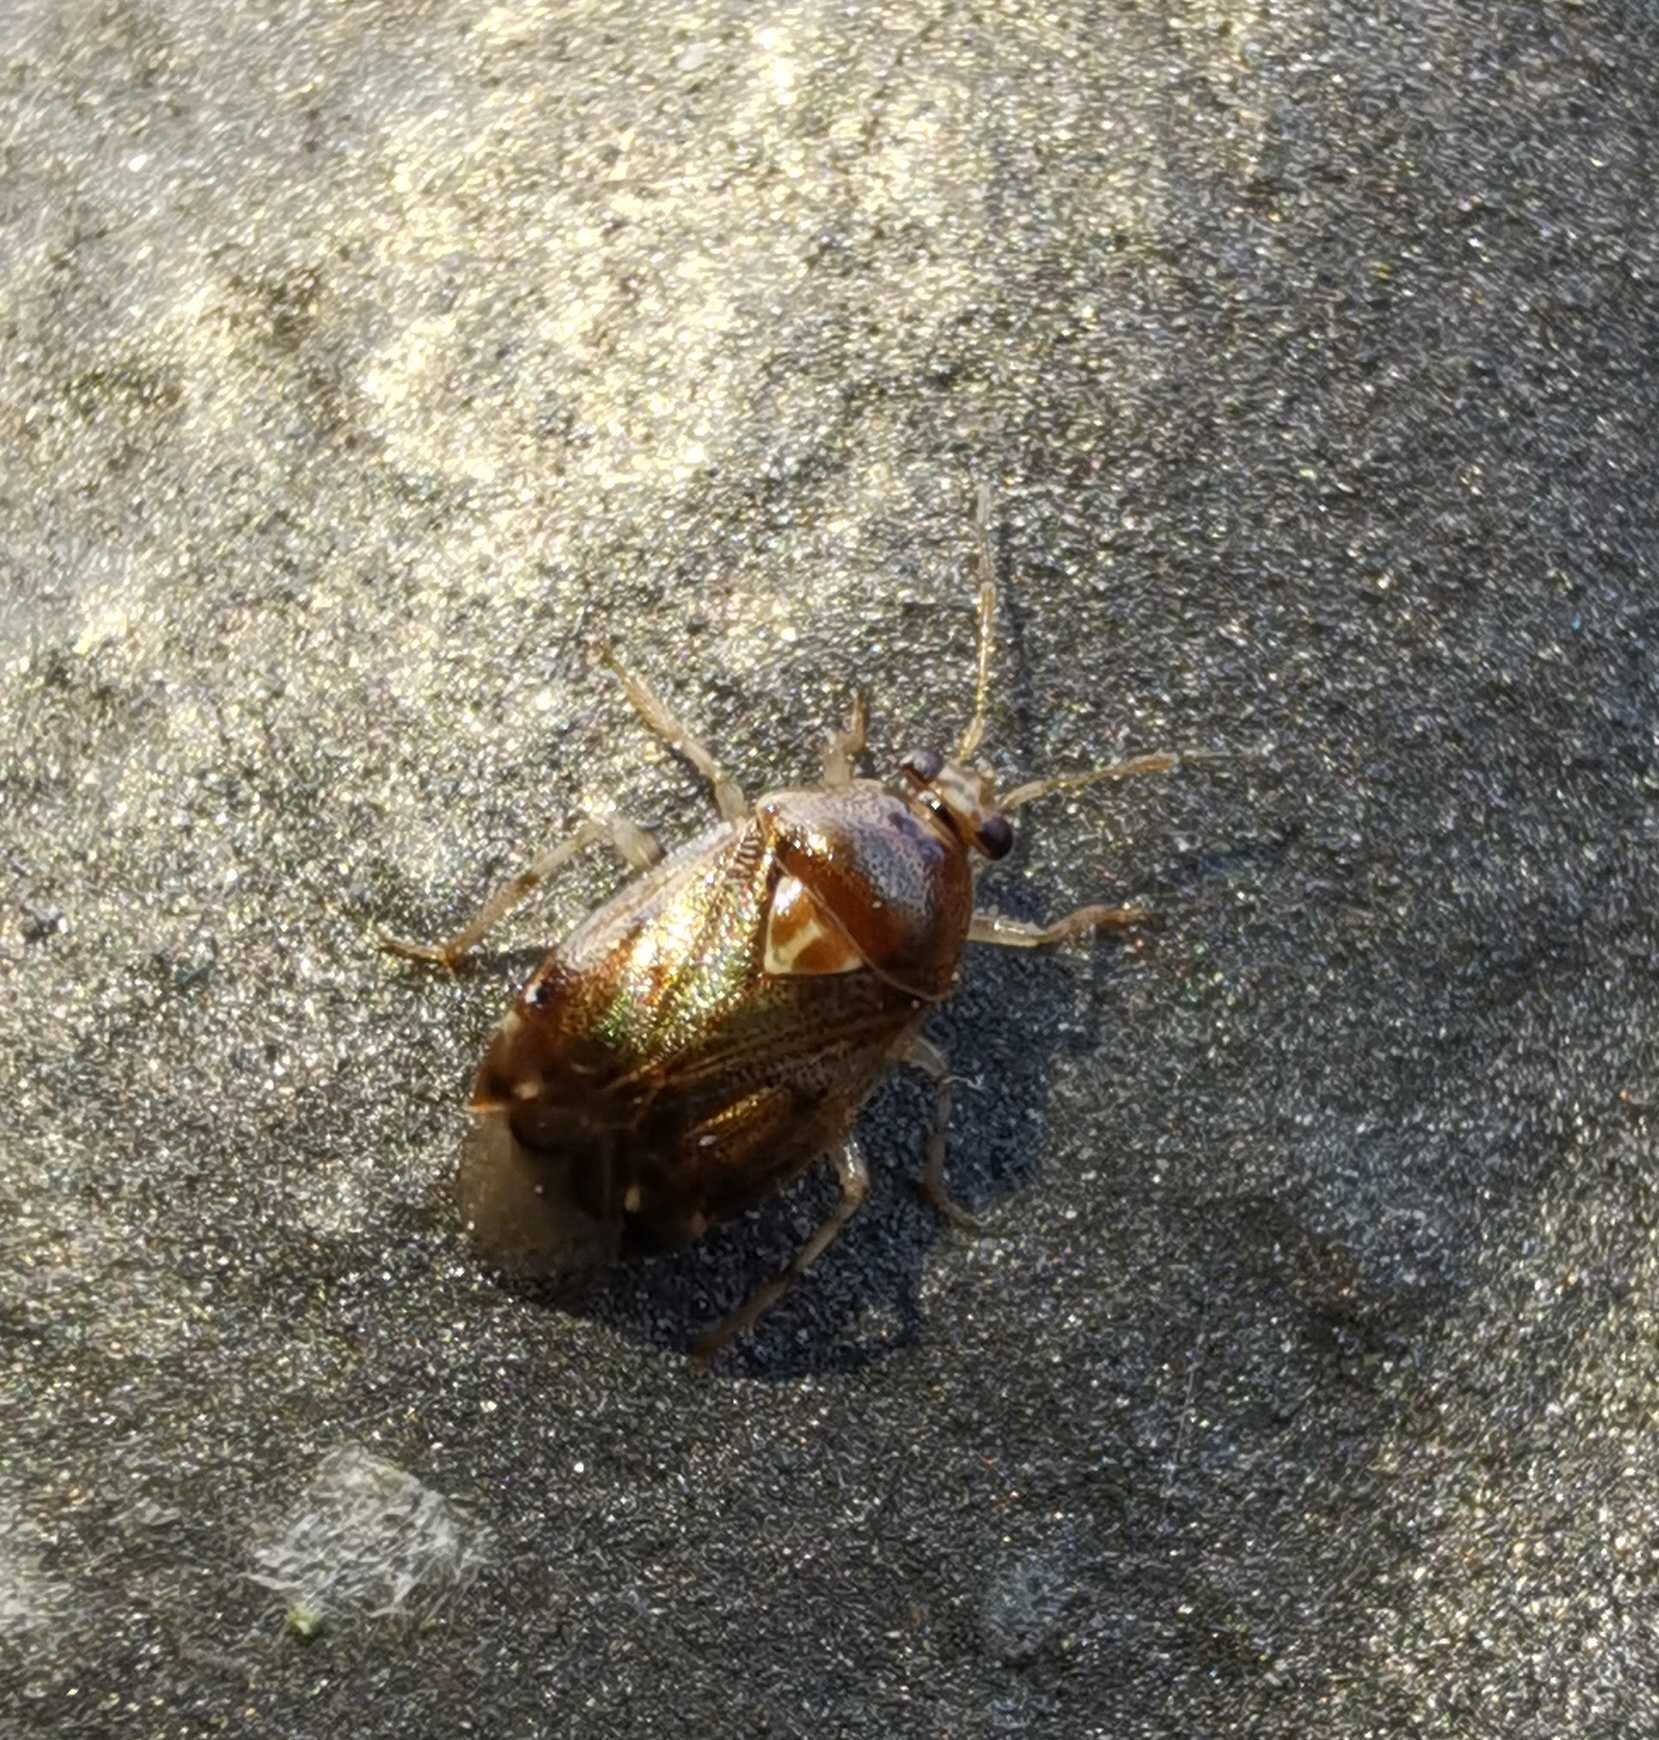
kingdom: Animalia
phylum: Arthropoda
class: Insecta
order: Hemiptera
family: Miridae
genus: Deraeocoris
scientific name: Deraeocoris lutescens
